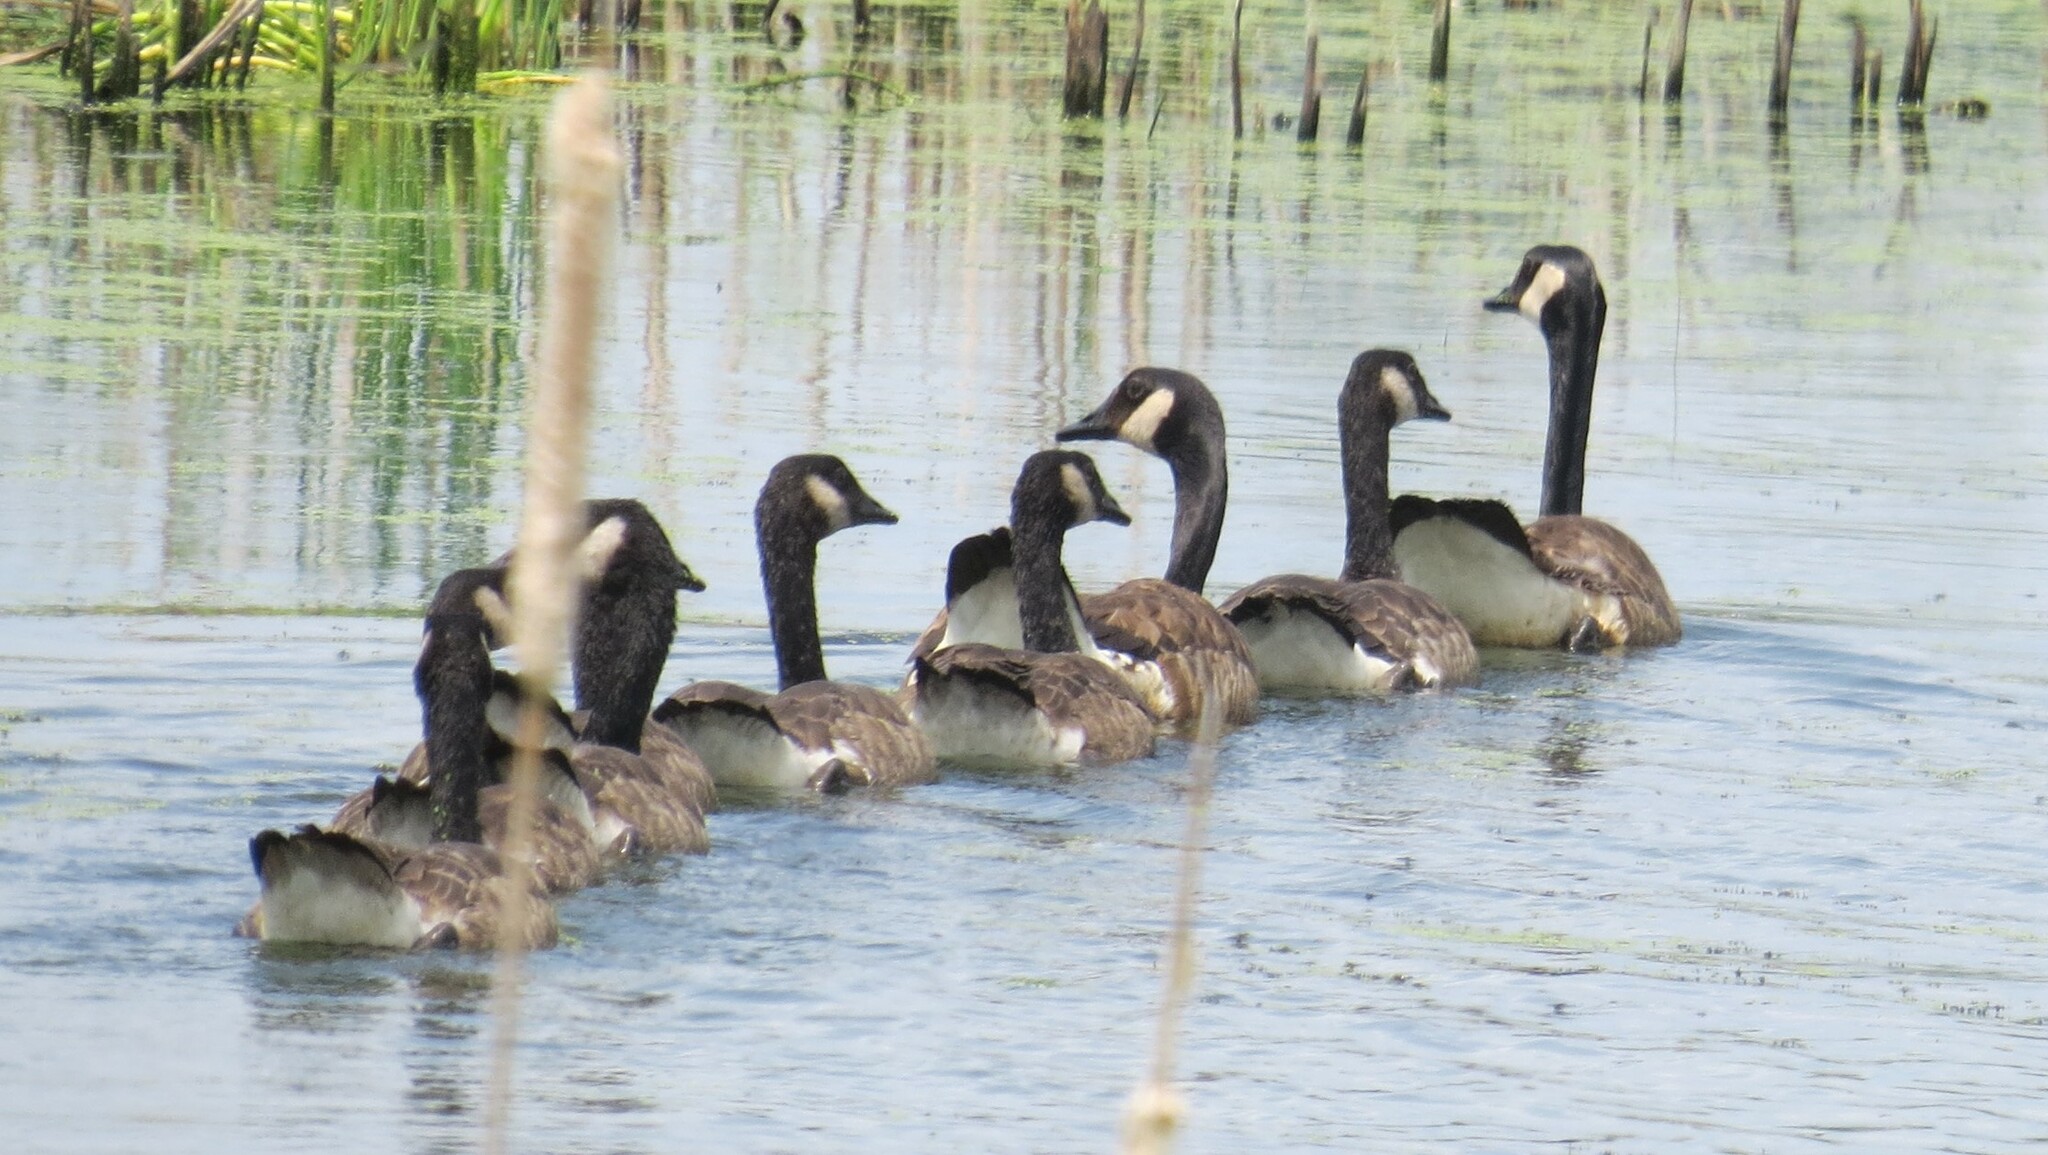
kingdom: Animalia
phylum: Chordata
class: Aves
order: Anseriformes
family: Anatidae
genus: Branta
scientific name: Branta canadensis
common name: Canada goose
